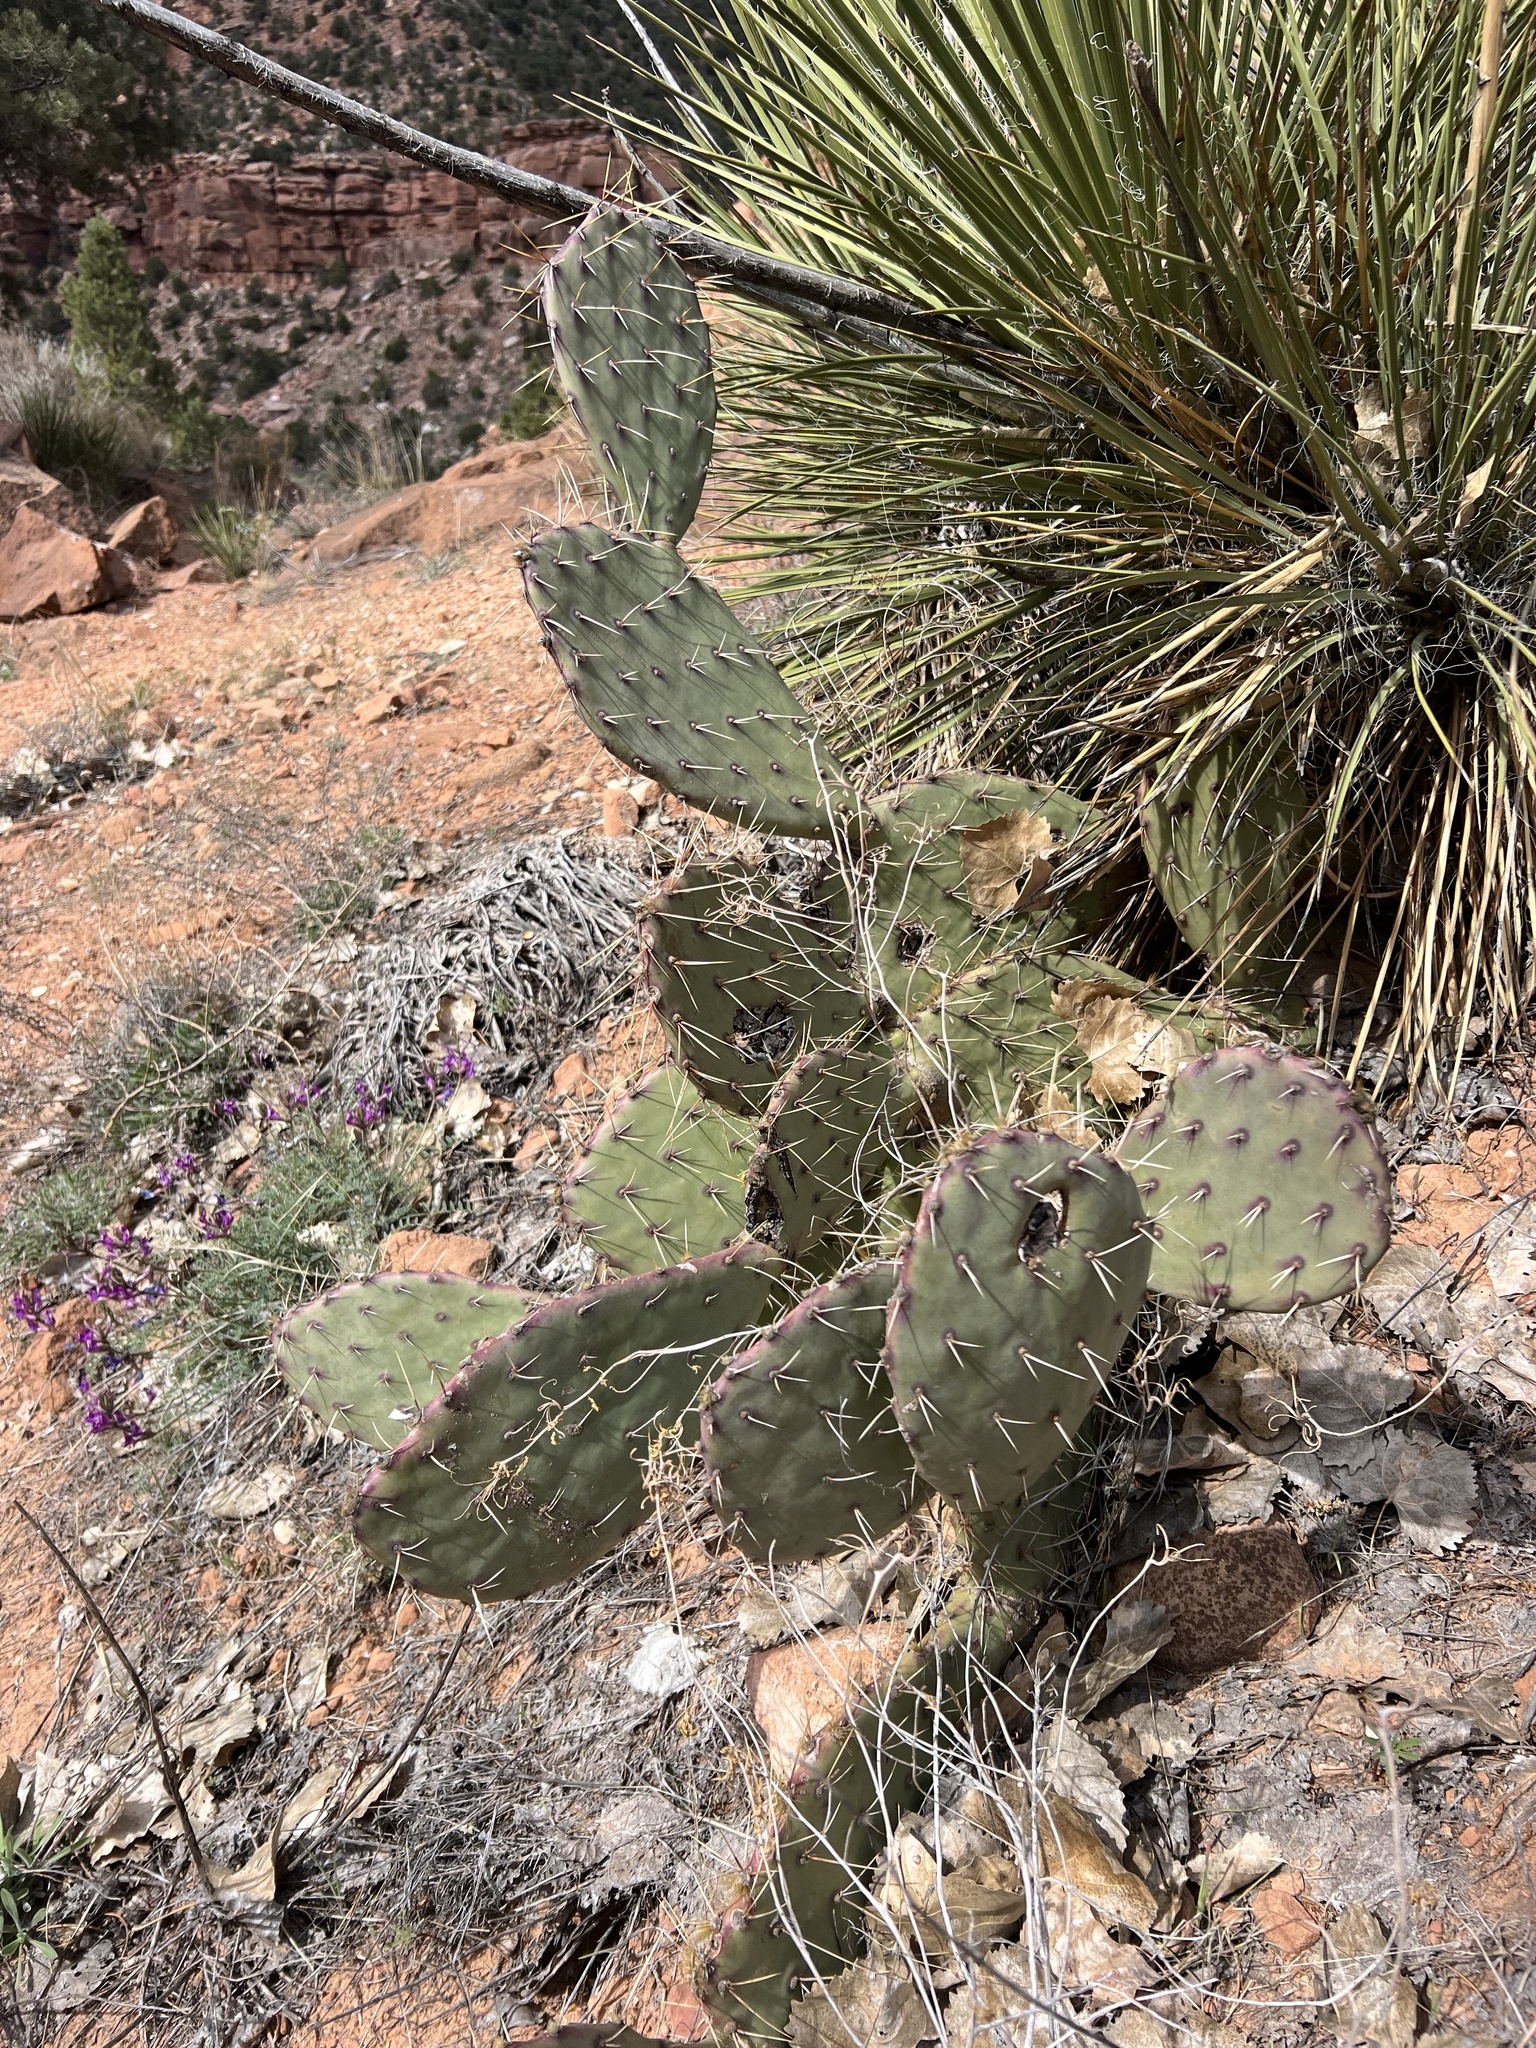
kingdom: Plantae
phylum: Tracheophyta
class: Magnoliopsida
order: Caryophyllales
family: Cactaceae
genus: Opuntia
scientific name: Opuntia phaeacantha
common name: New mexico prickly-pear
